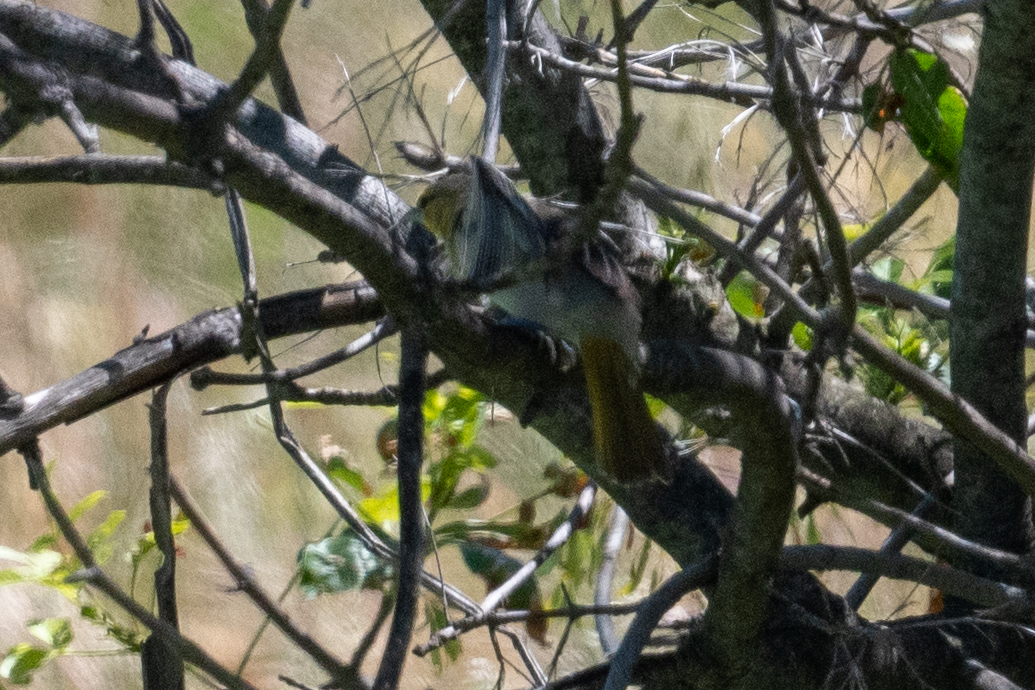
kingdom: Animalia
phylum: Chordata
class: Aves
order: Passeriformes
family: Icteridae
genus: Icterus
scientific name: Icterus bullockii
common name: Bullock's oriole
